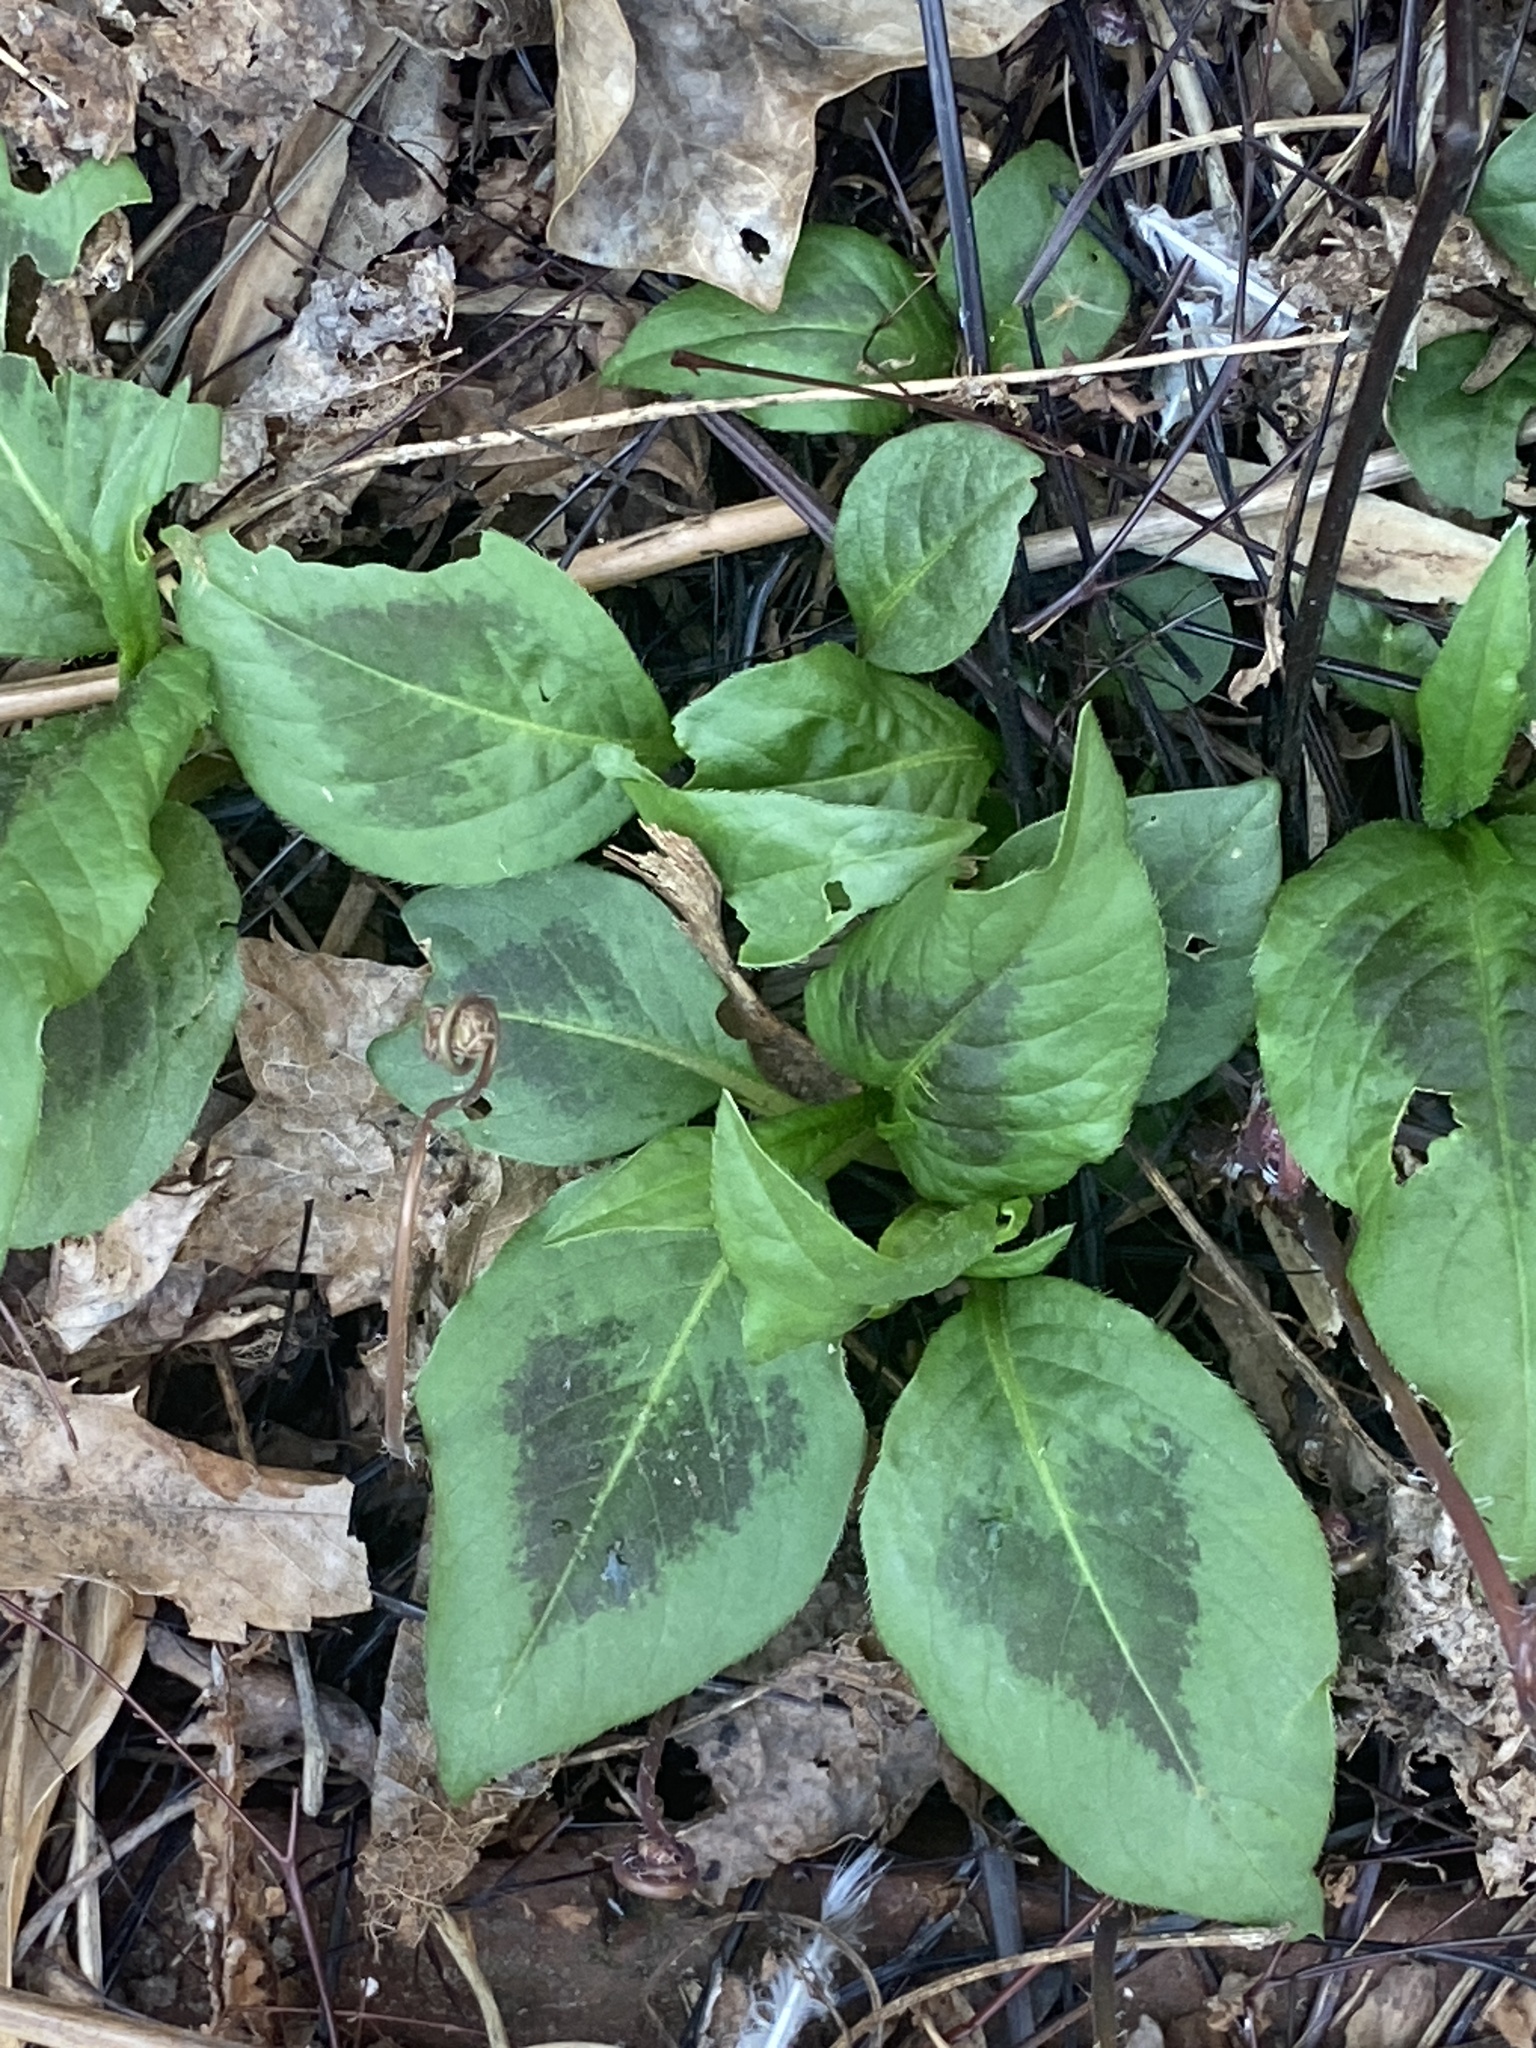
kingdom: Plantae
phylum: Tracheophyta
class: Magnoliopsida
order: Caryophyllales
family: Polygonaceae
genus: Persicaria
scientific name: Persicaria virginiana
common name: Jumpseed
